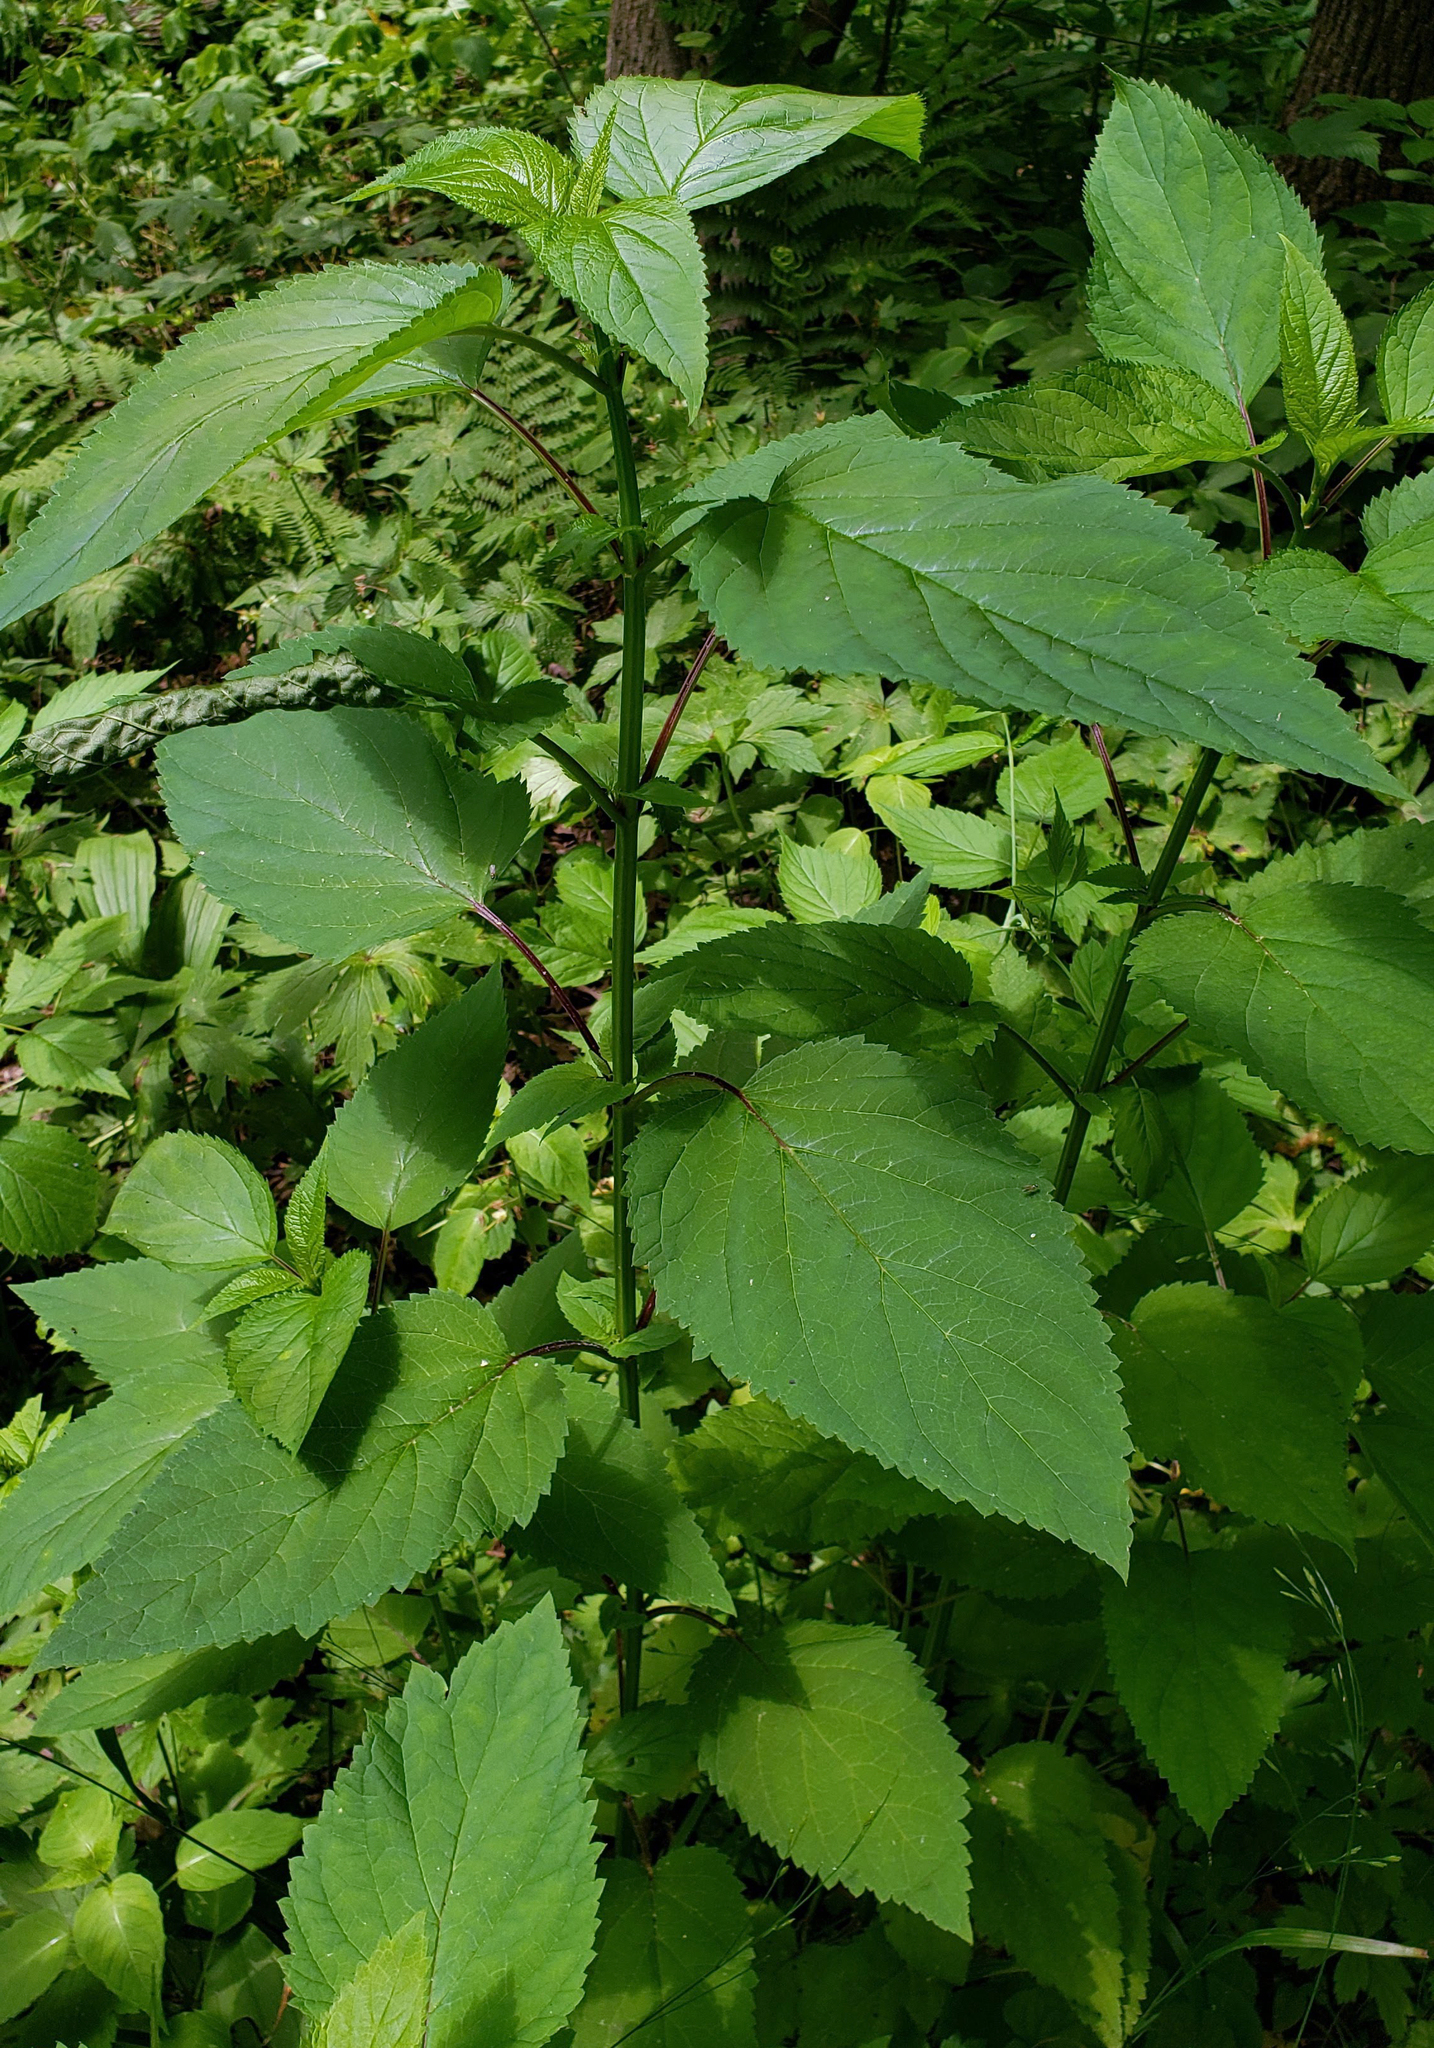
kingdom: Plantae
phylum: Tracheophyta
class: Magnoliopsida
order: Lamiales
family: Scrophulariaceae
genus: Scrophularia
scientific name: Scrophularia marilandica
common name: Eastern figwort
